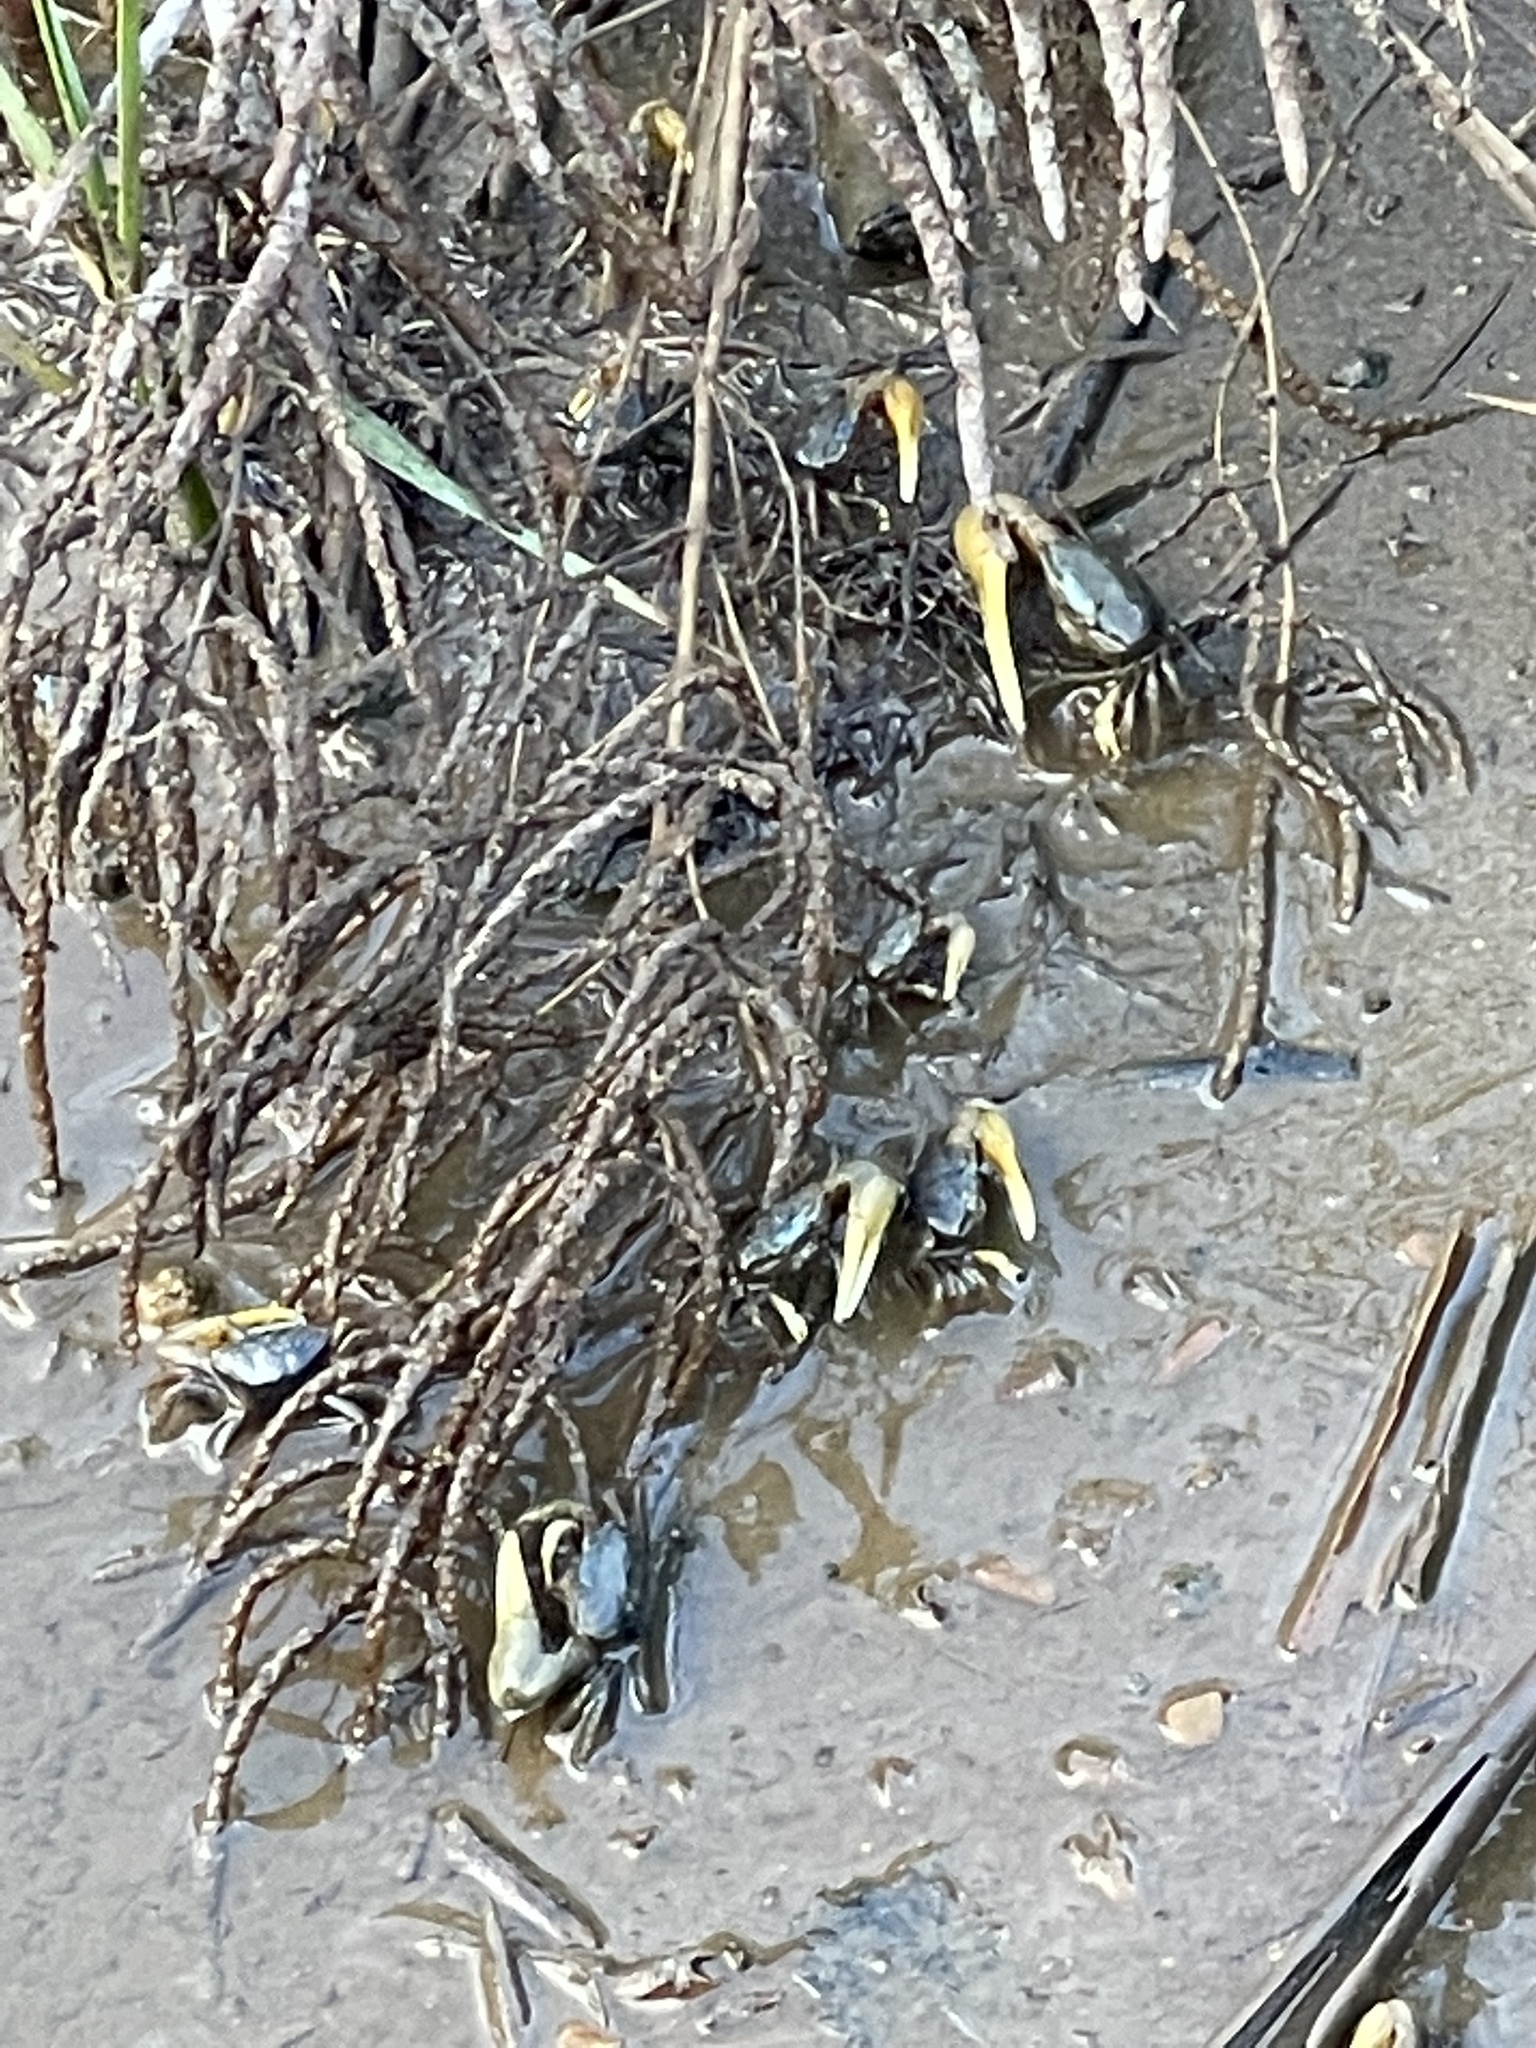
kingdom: Animalia
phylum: Arthropoda
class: Malacostraca
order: Decapoda
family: Ocypodidae
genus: Minuca
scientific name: Minuca pugnax
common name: Mud fiddler crab
